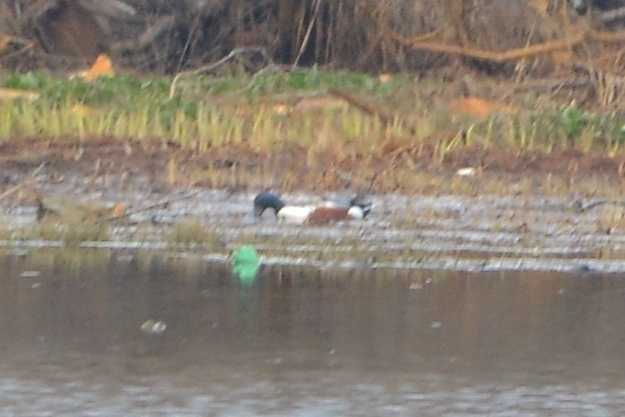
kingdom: Animalia
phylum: Chordata
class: Aves
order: Anseriformes
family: Anatidae
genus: Spatula
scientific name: Spatula clypeata
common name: Northern shoveler
